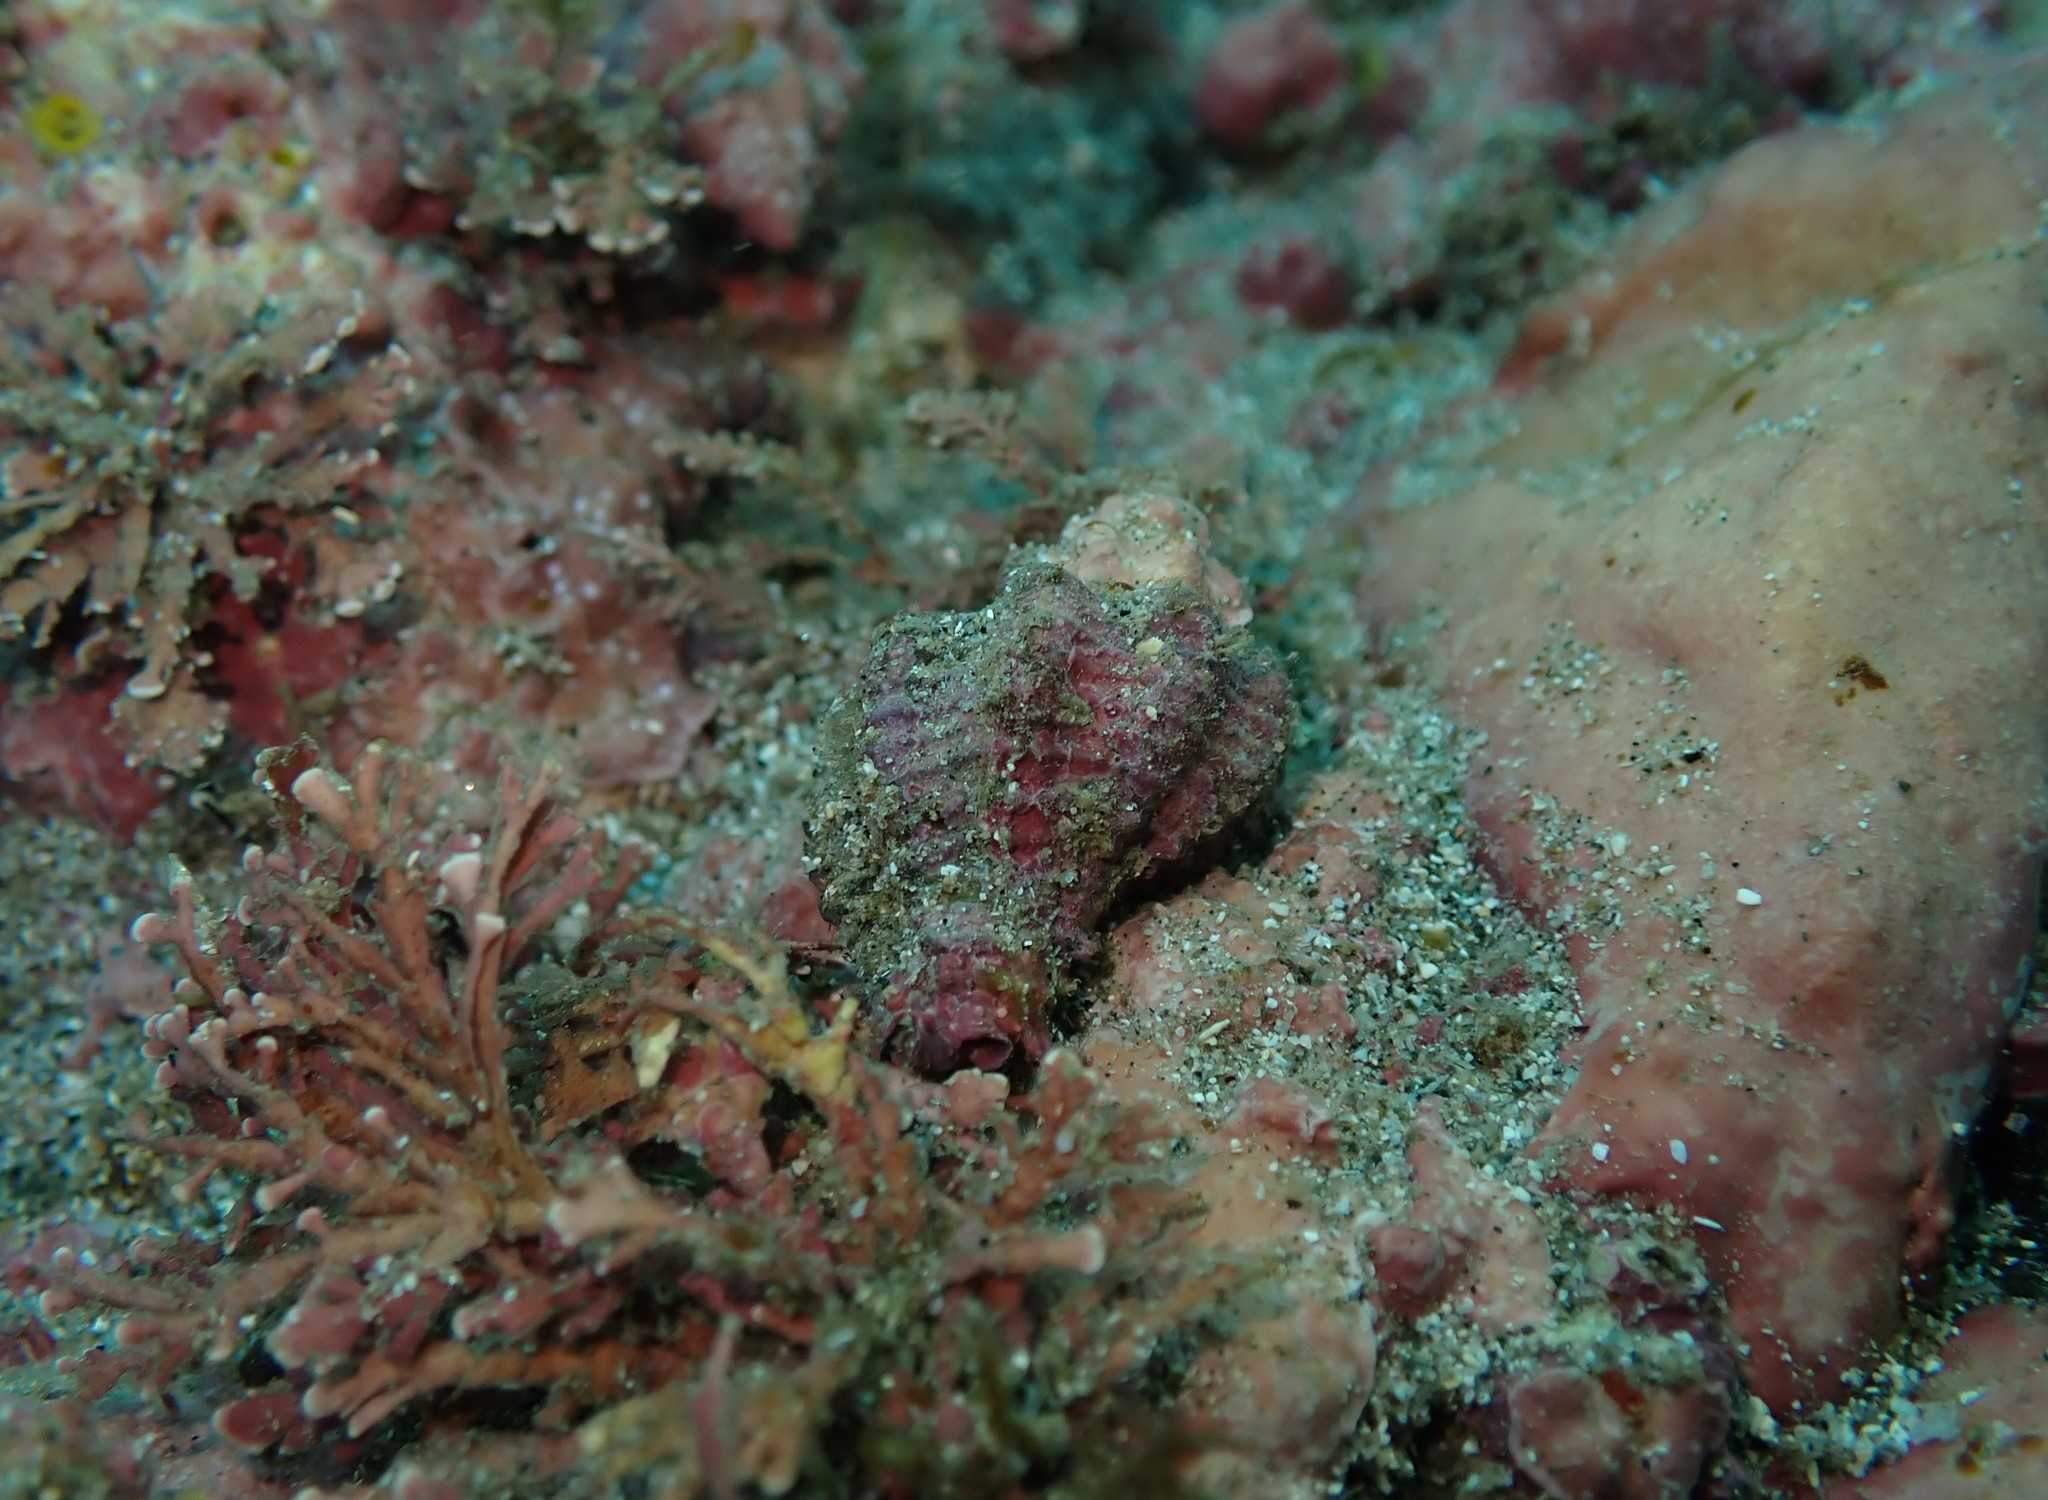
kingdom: Animalia
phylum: Mollusca
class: Gastropoda
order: Neogastropoda
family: Muricidae
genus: Murexsul
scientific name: Murexsul octogonus
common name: Octagon murex
